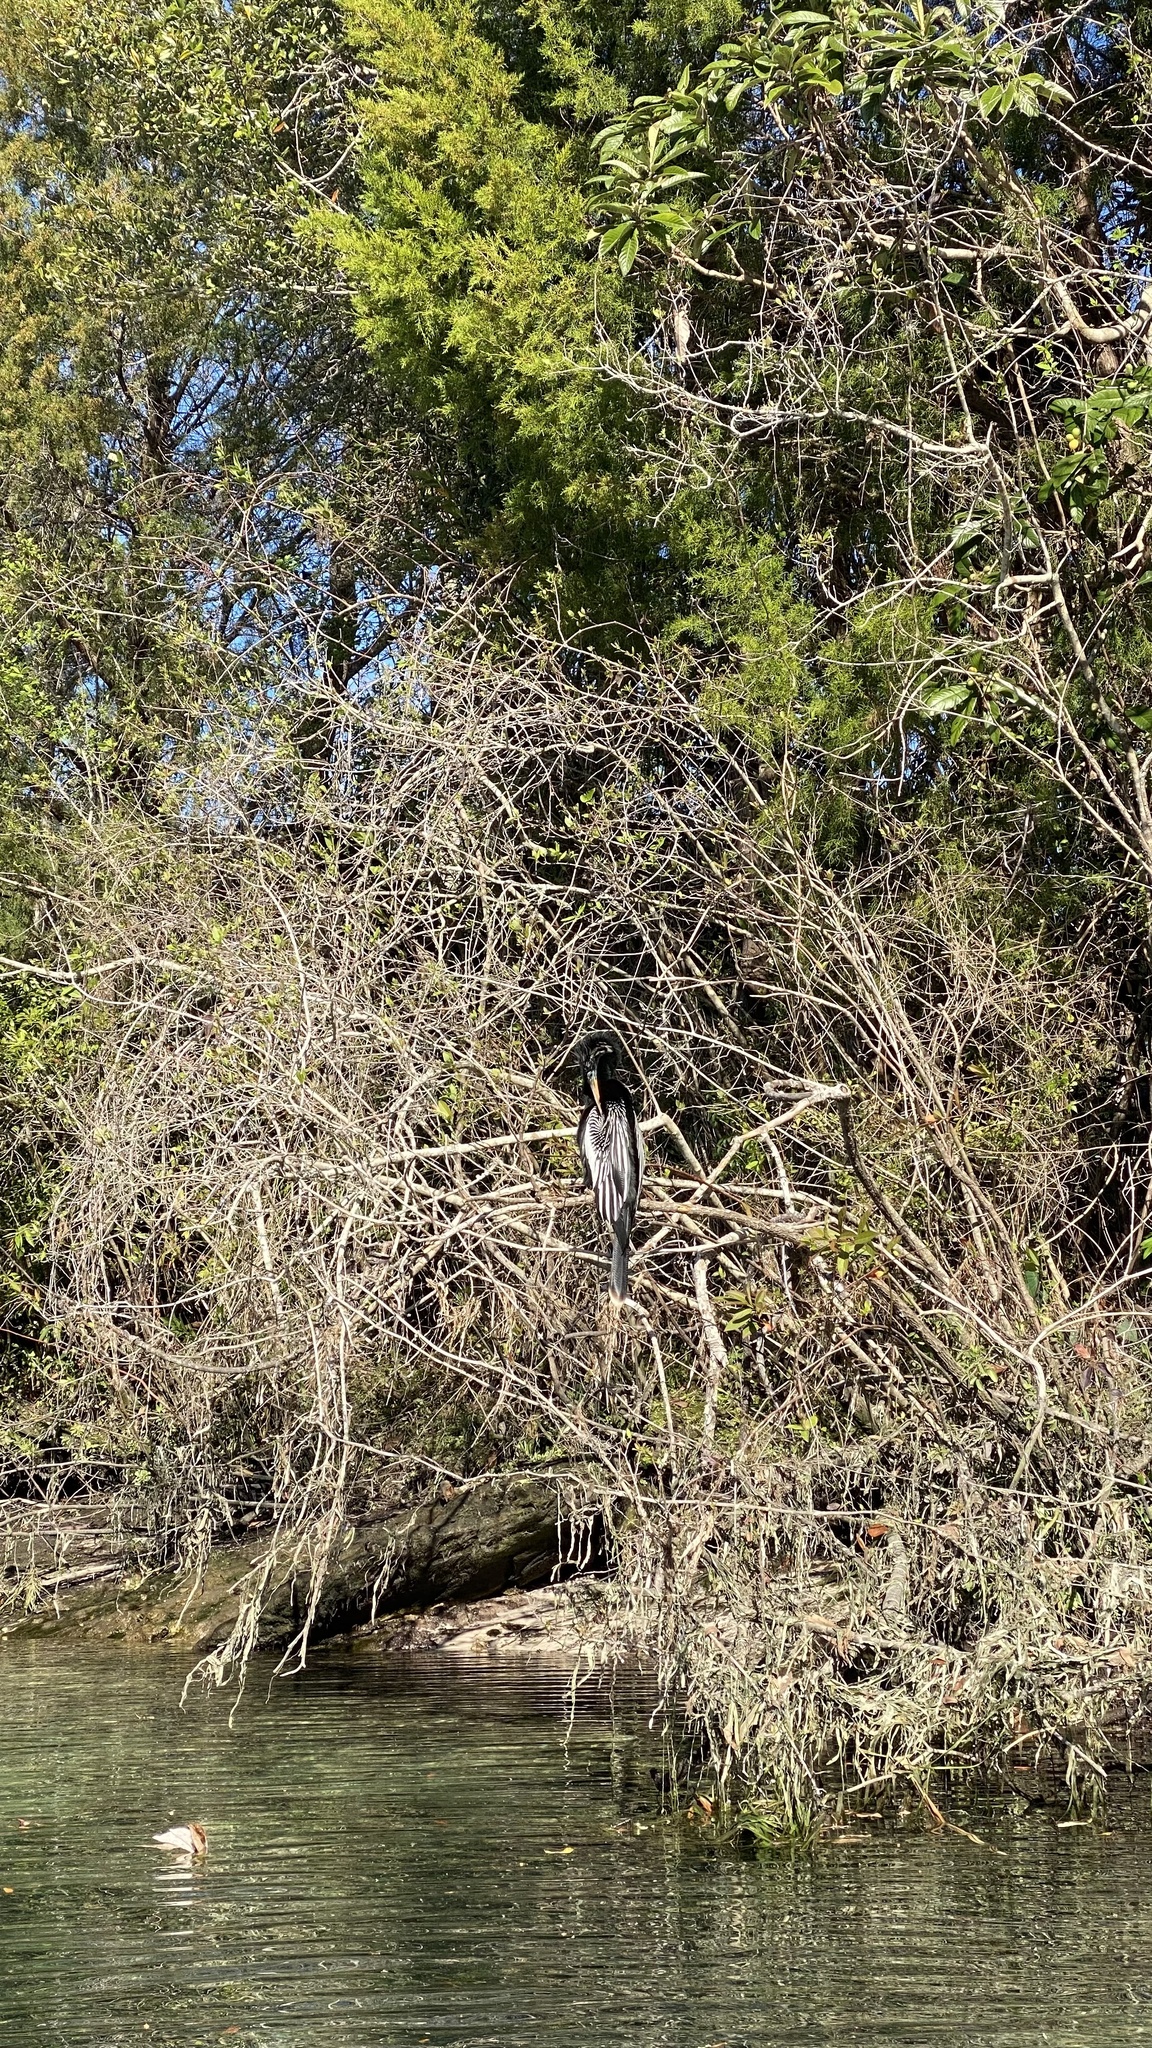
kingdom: Animalia
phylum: Chordata
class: Aves
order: Suliformes
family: Anhingidae
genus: Anhinga
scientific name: Anhinga anhinga
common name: Anhinga
